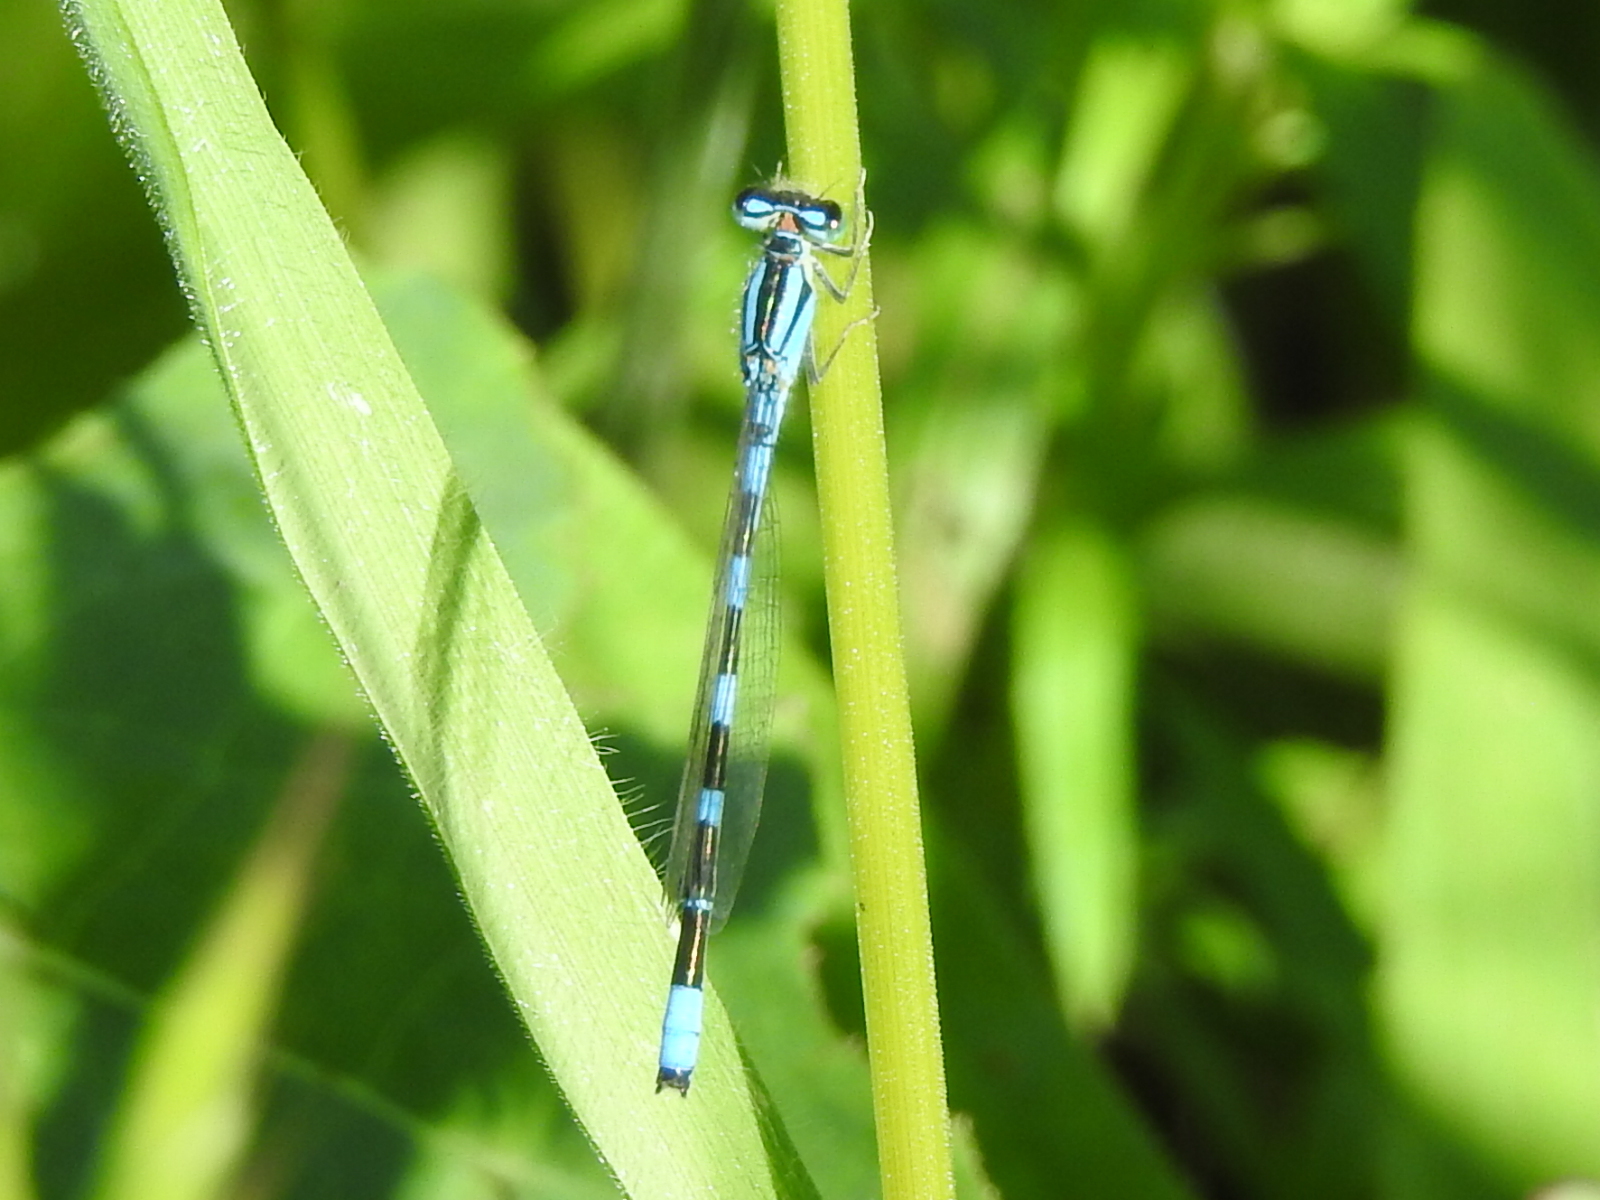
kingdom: Animalia
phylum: Arthropoda
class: Insecta
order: Odonata
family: Coenagrionidae
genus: Enallagma
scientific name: Enallagma carunculatum
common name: Tule bluet
